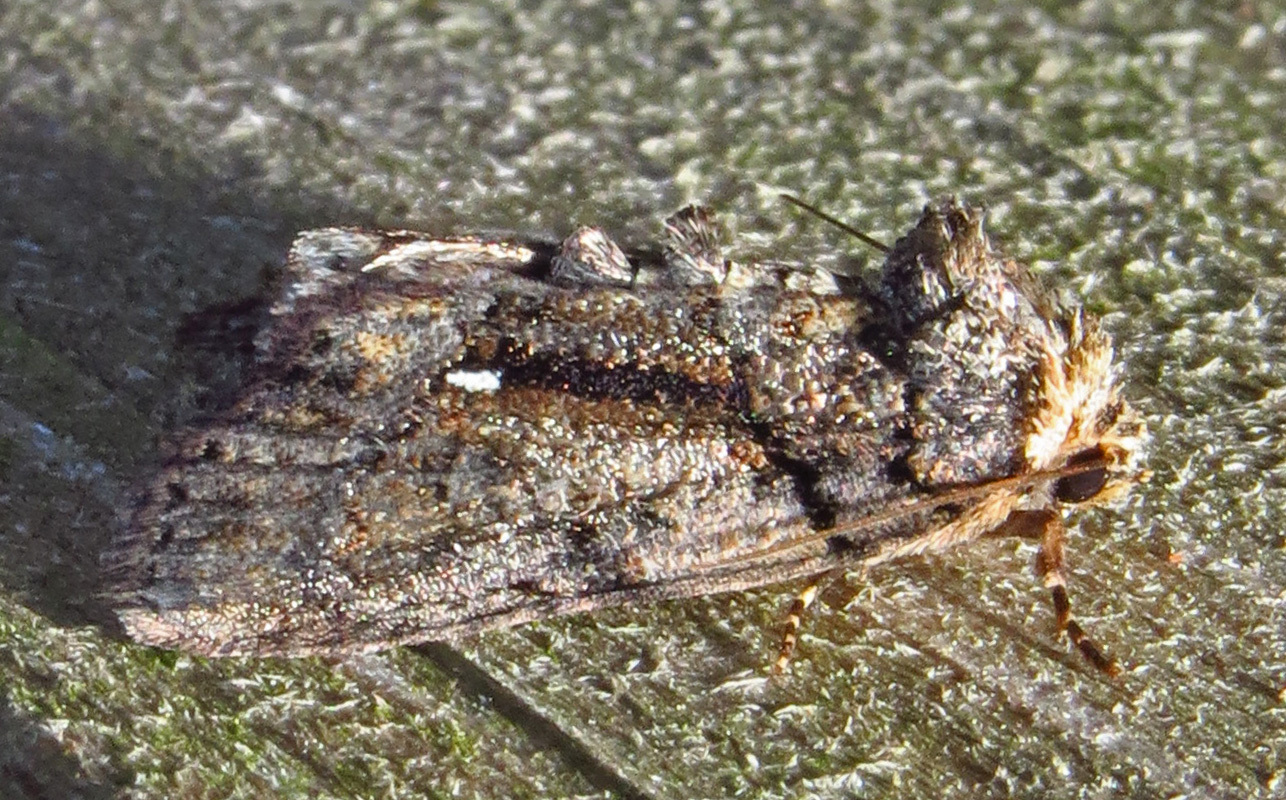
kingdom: Animalia
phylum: Arthropoda
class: Insecta
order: Lepidoptera
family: Noctuidae
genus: Chytonix
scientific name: Chytonix palliatricula
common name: Cloaked marvel
